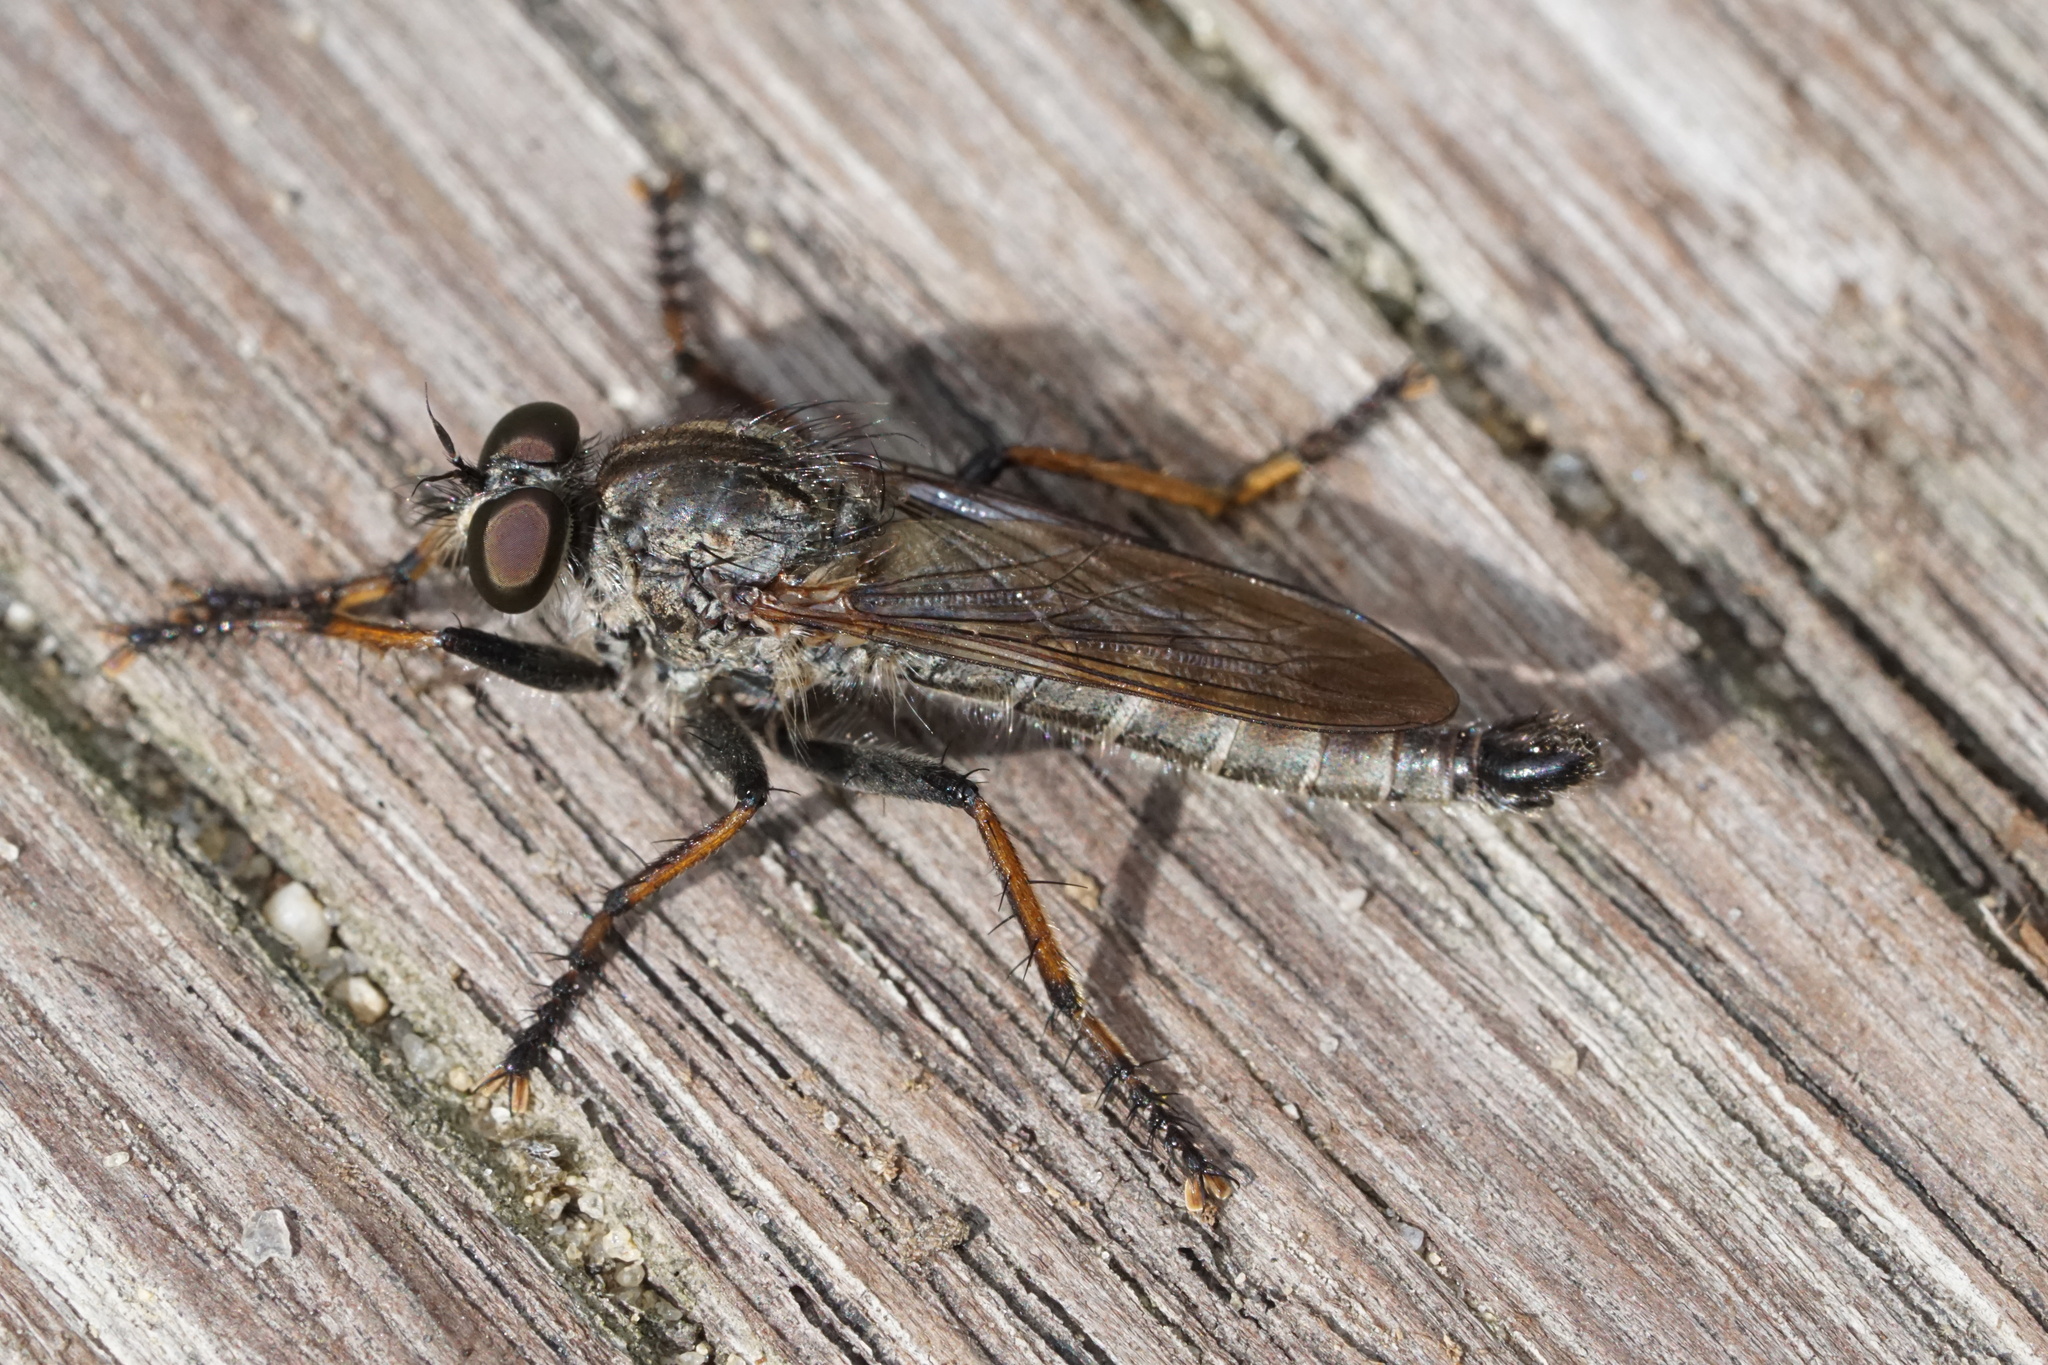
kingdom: Animalia
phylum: Arthropoda
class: Insecta
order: Diptera
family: Asilidae
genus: Machimus
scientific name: Machimus sadyates
